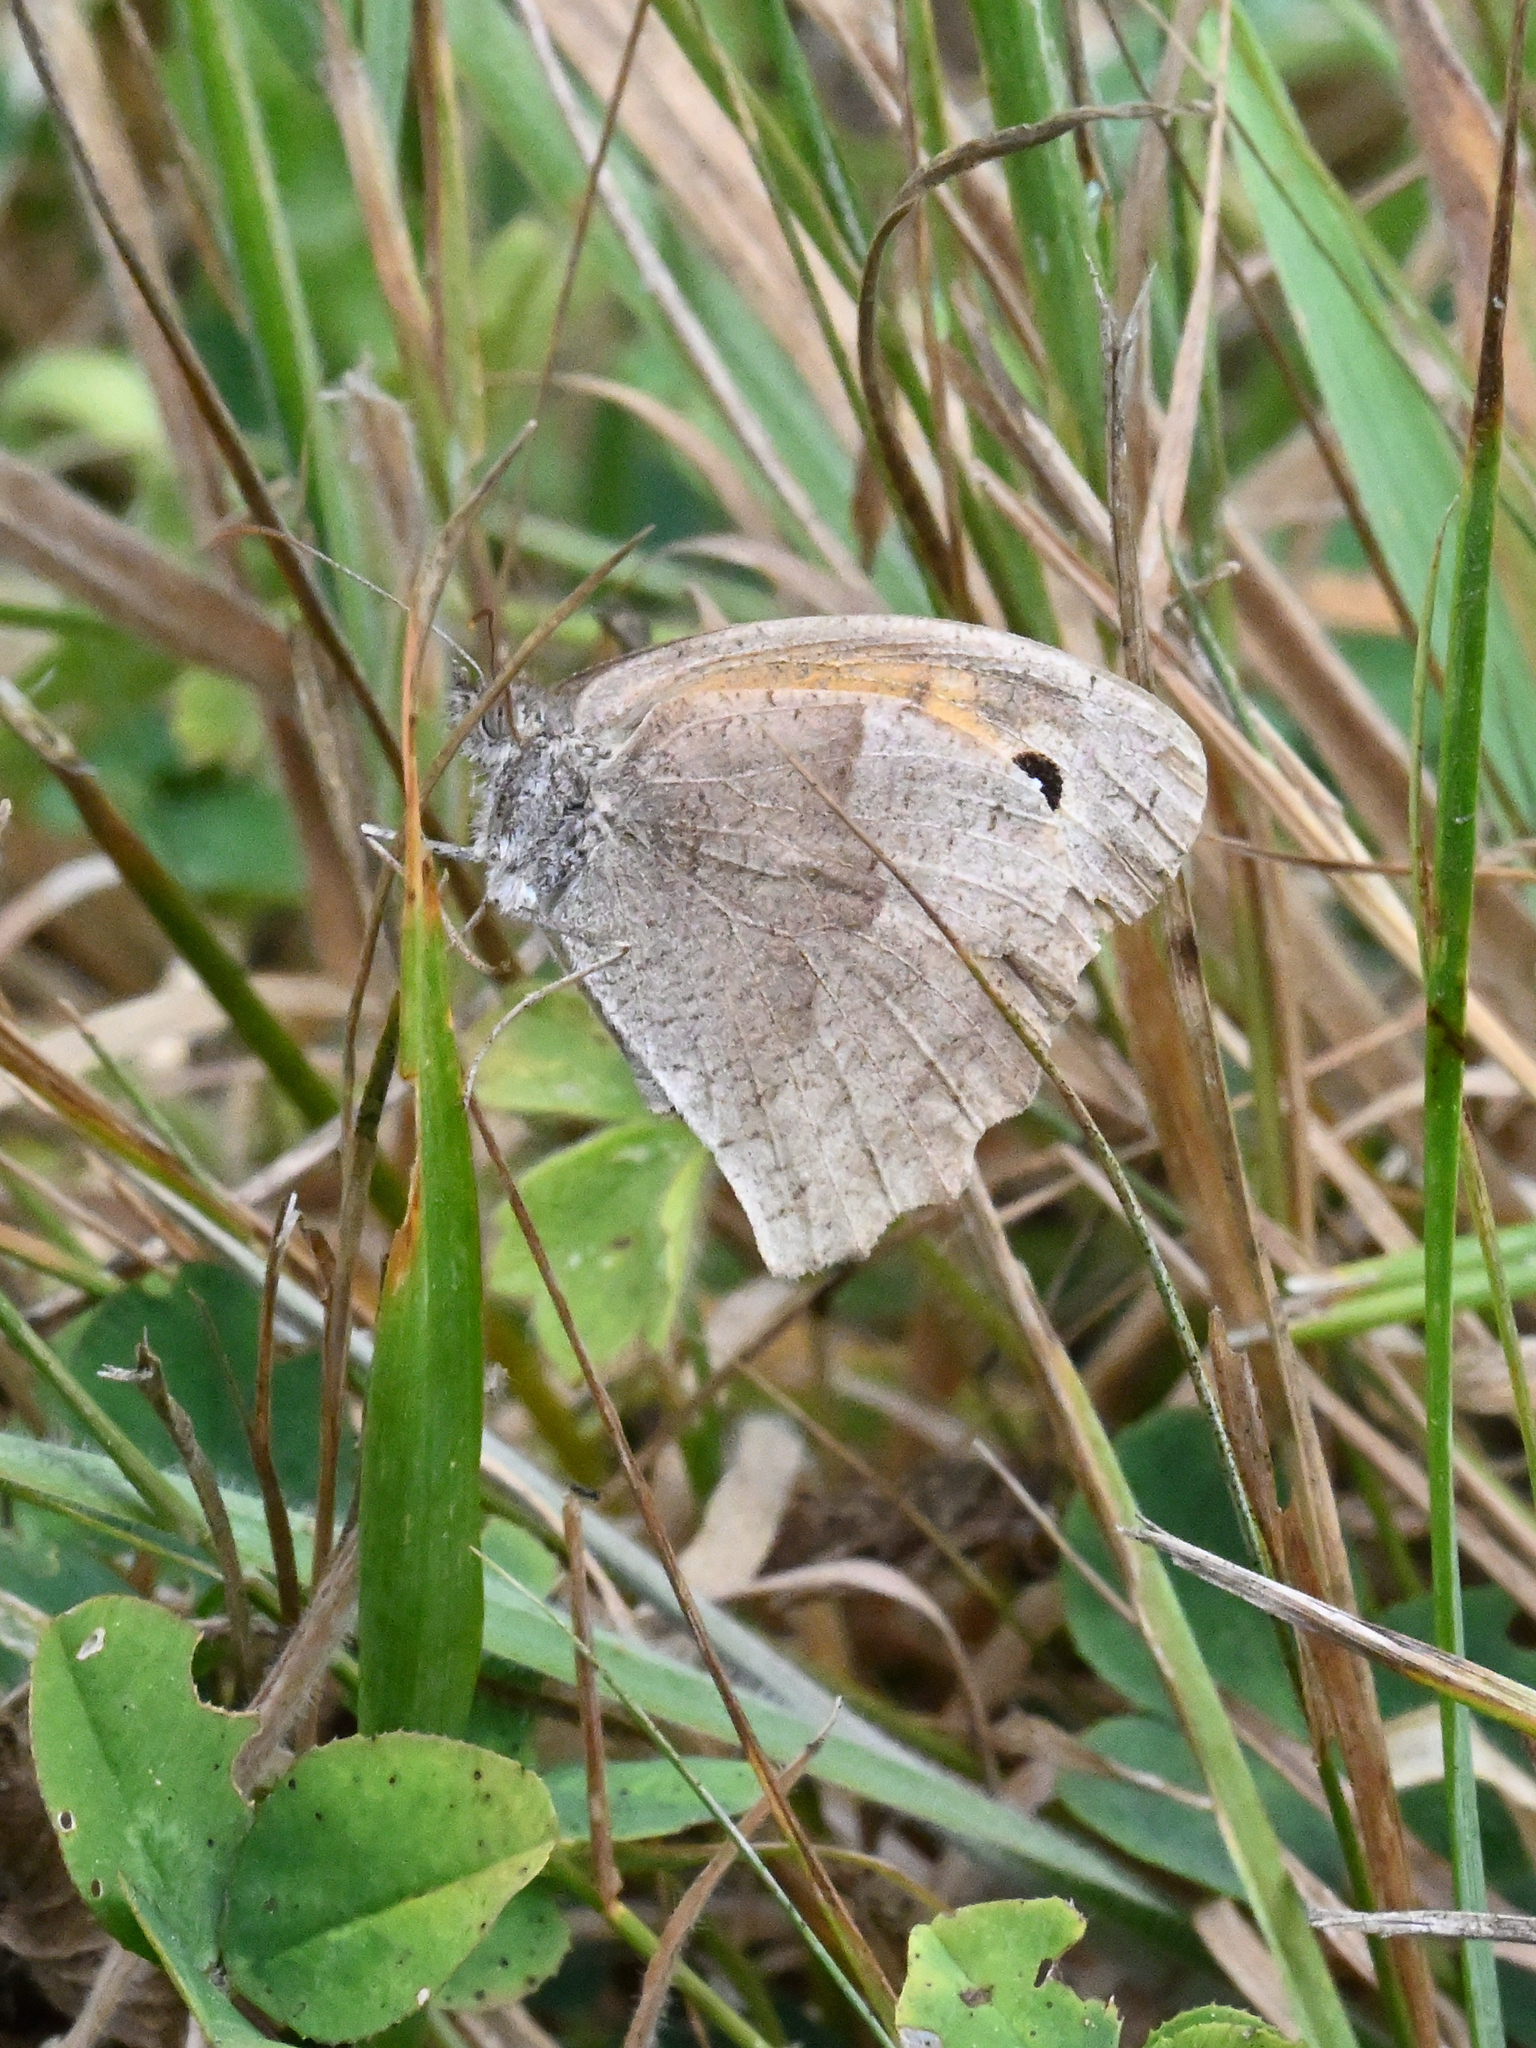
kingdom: Animalia
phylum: Arthropoda
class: Insecta
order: Lepidoptera
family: Nymphalidae
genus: Maniola
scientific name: Maniola jurtina
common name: Meadow brown
